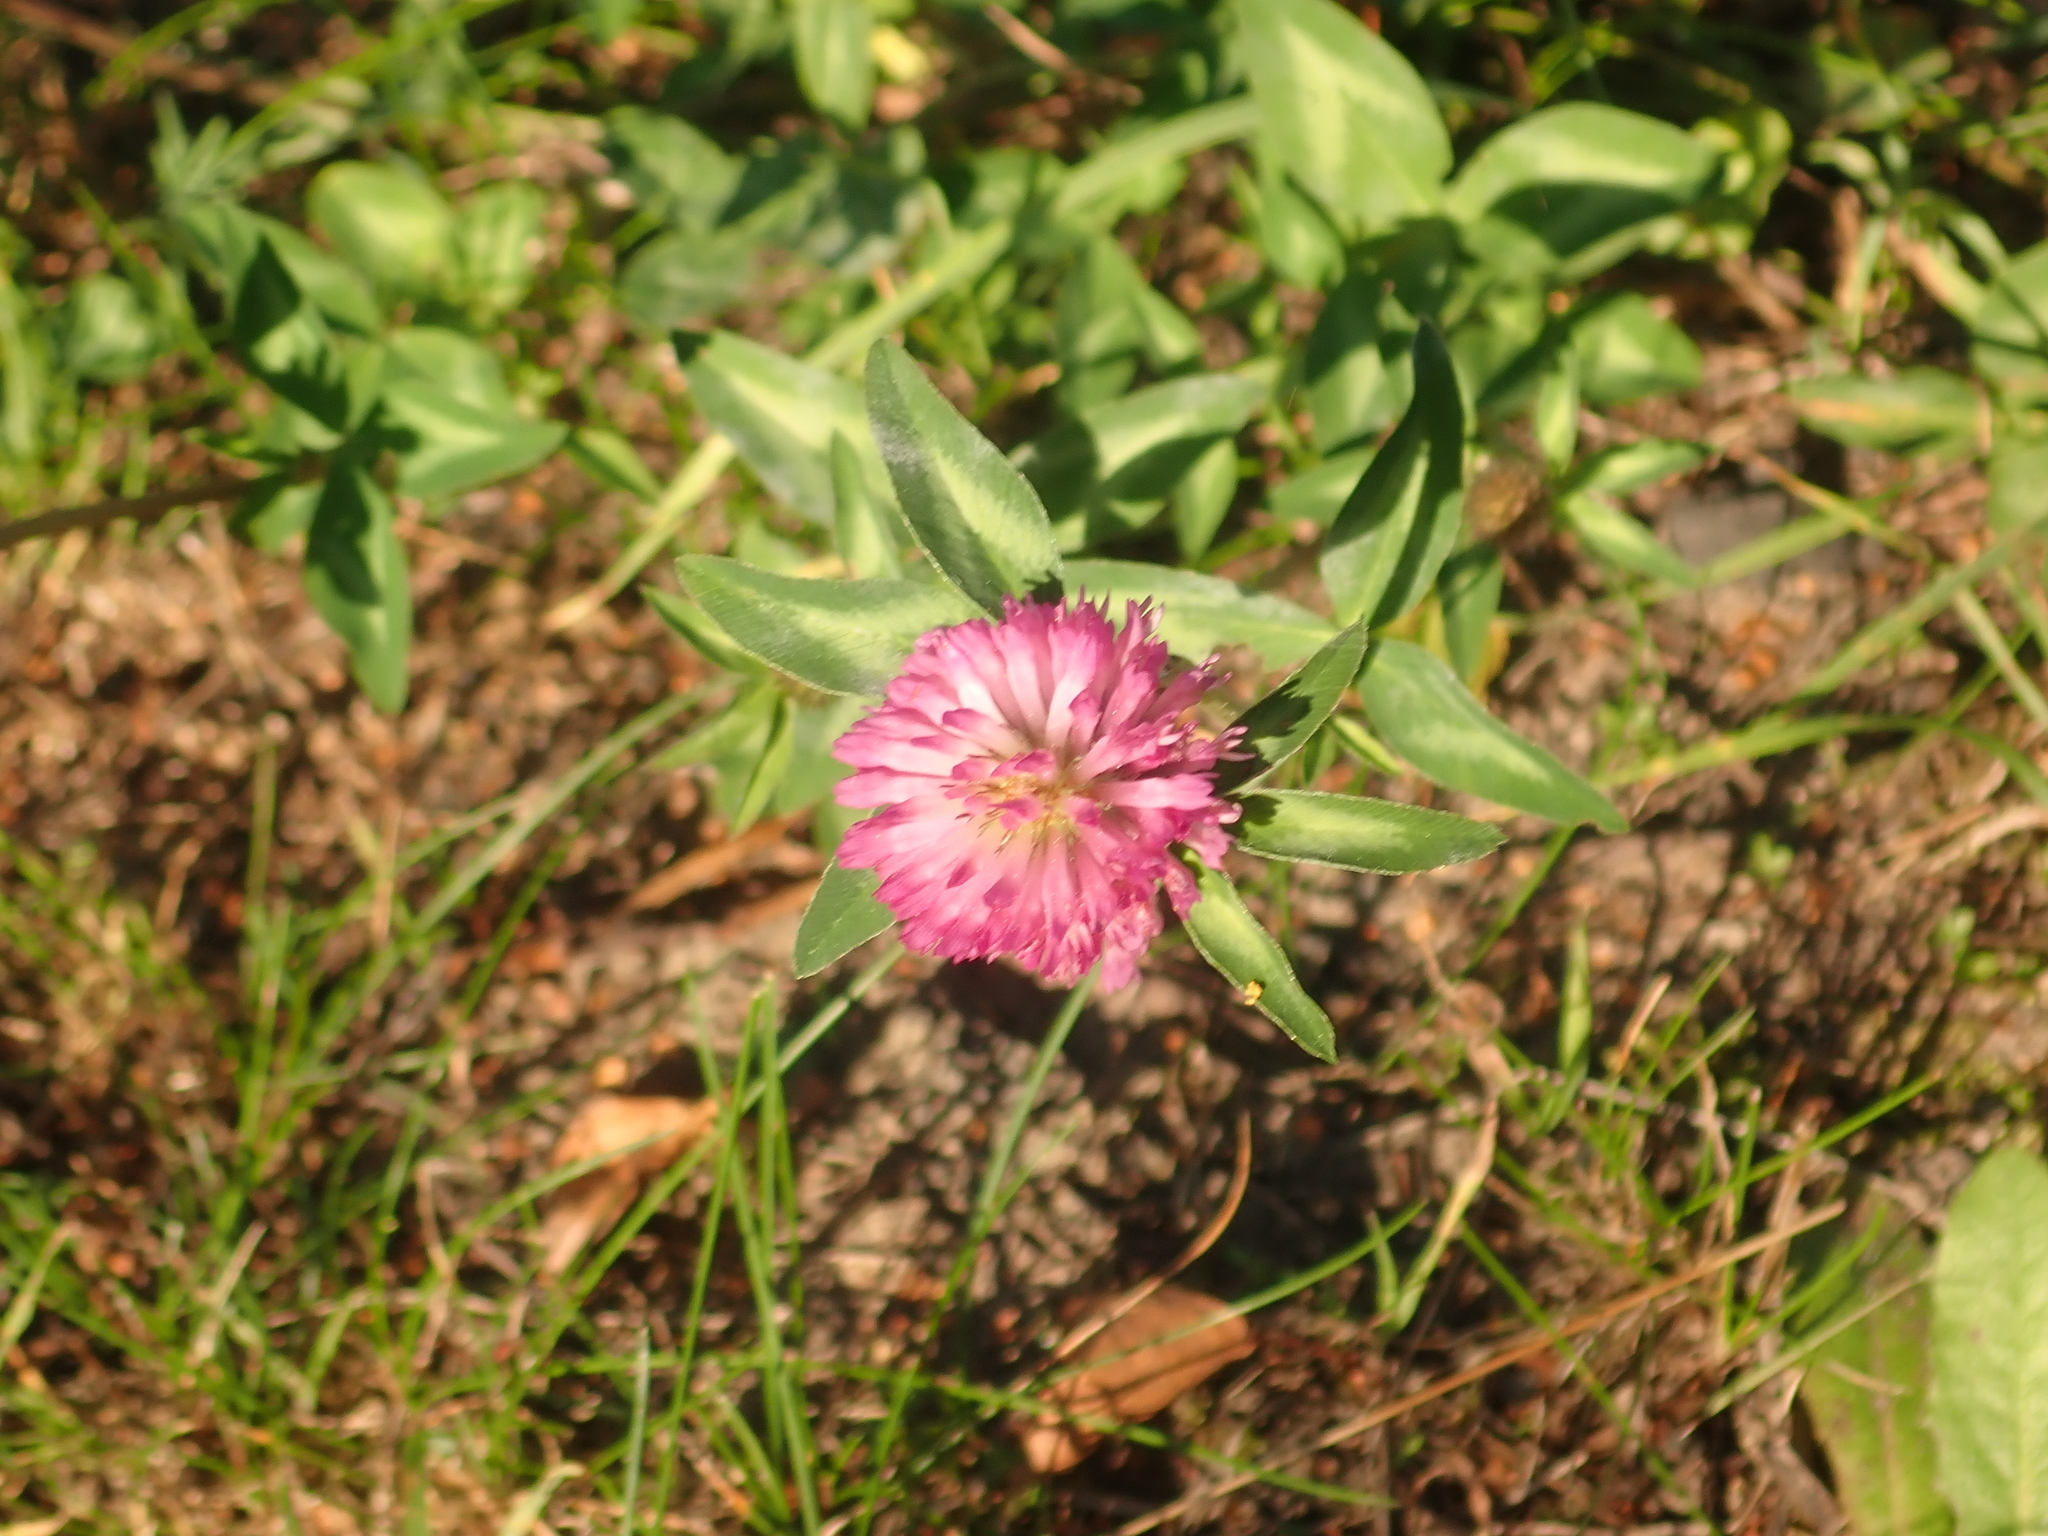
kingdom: Plantae
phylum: Tracheophyta
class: Magnoliopsida
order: Fabales
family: Fabaceae
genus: Trifolium
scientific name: Trifolium pratense
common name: Red clover
